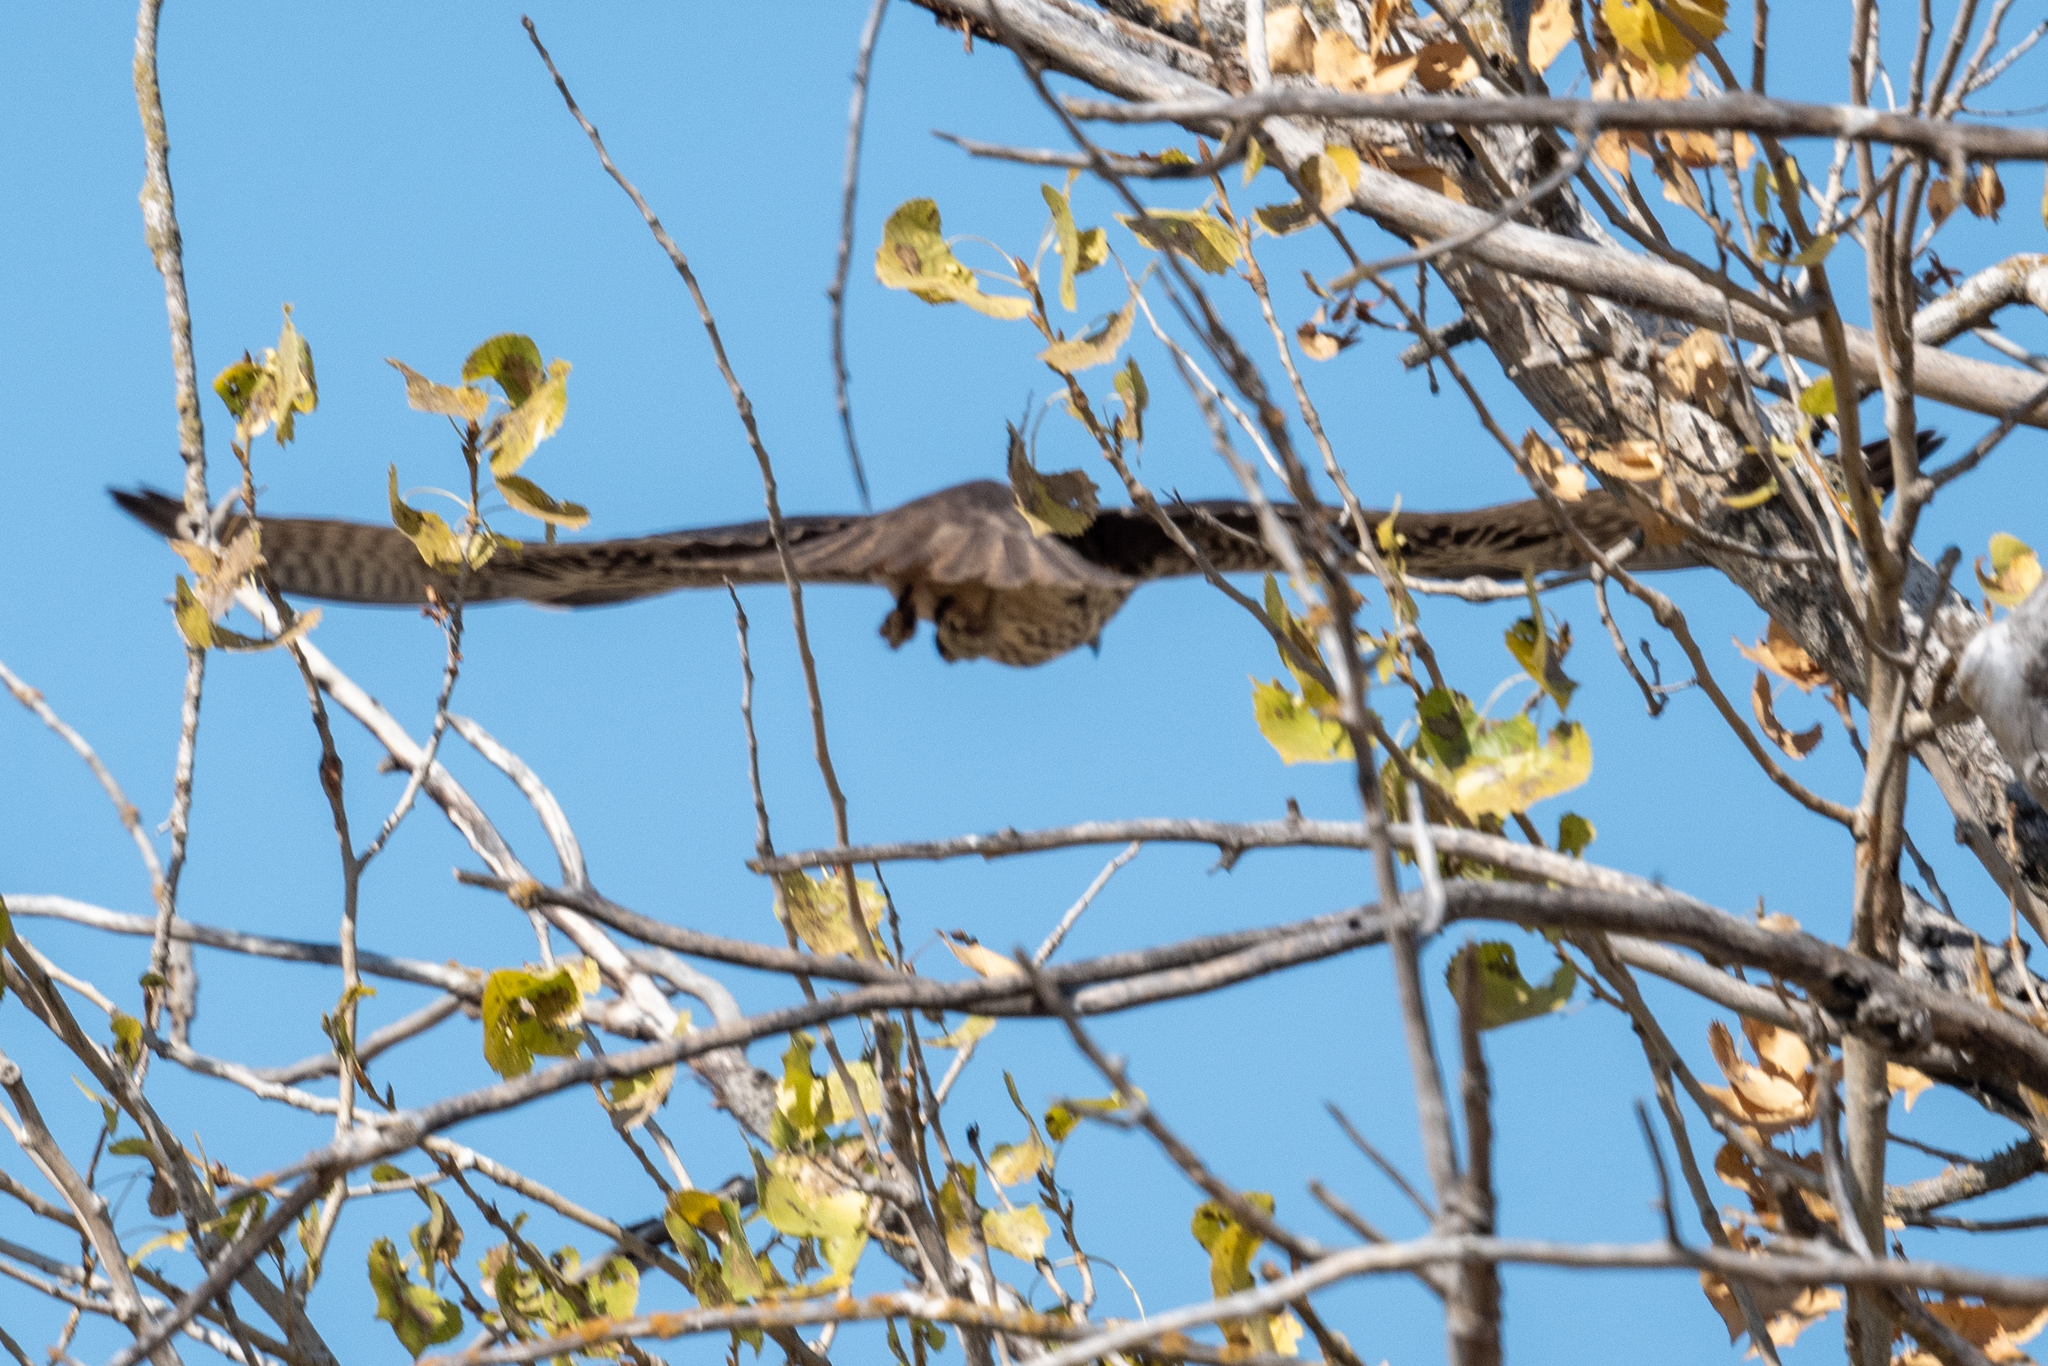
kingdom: Animalia
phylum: Chordata
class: Aves
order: Falconiformes
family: Falconidae
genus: Falco
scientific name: Falco mexicanus
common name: Prairie falcon
